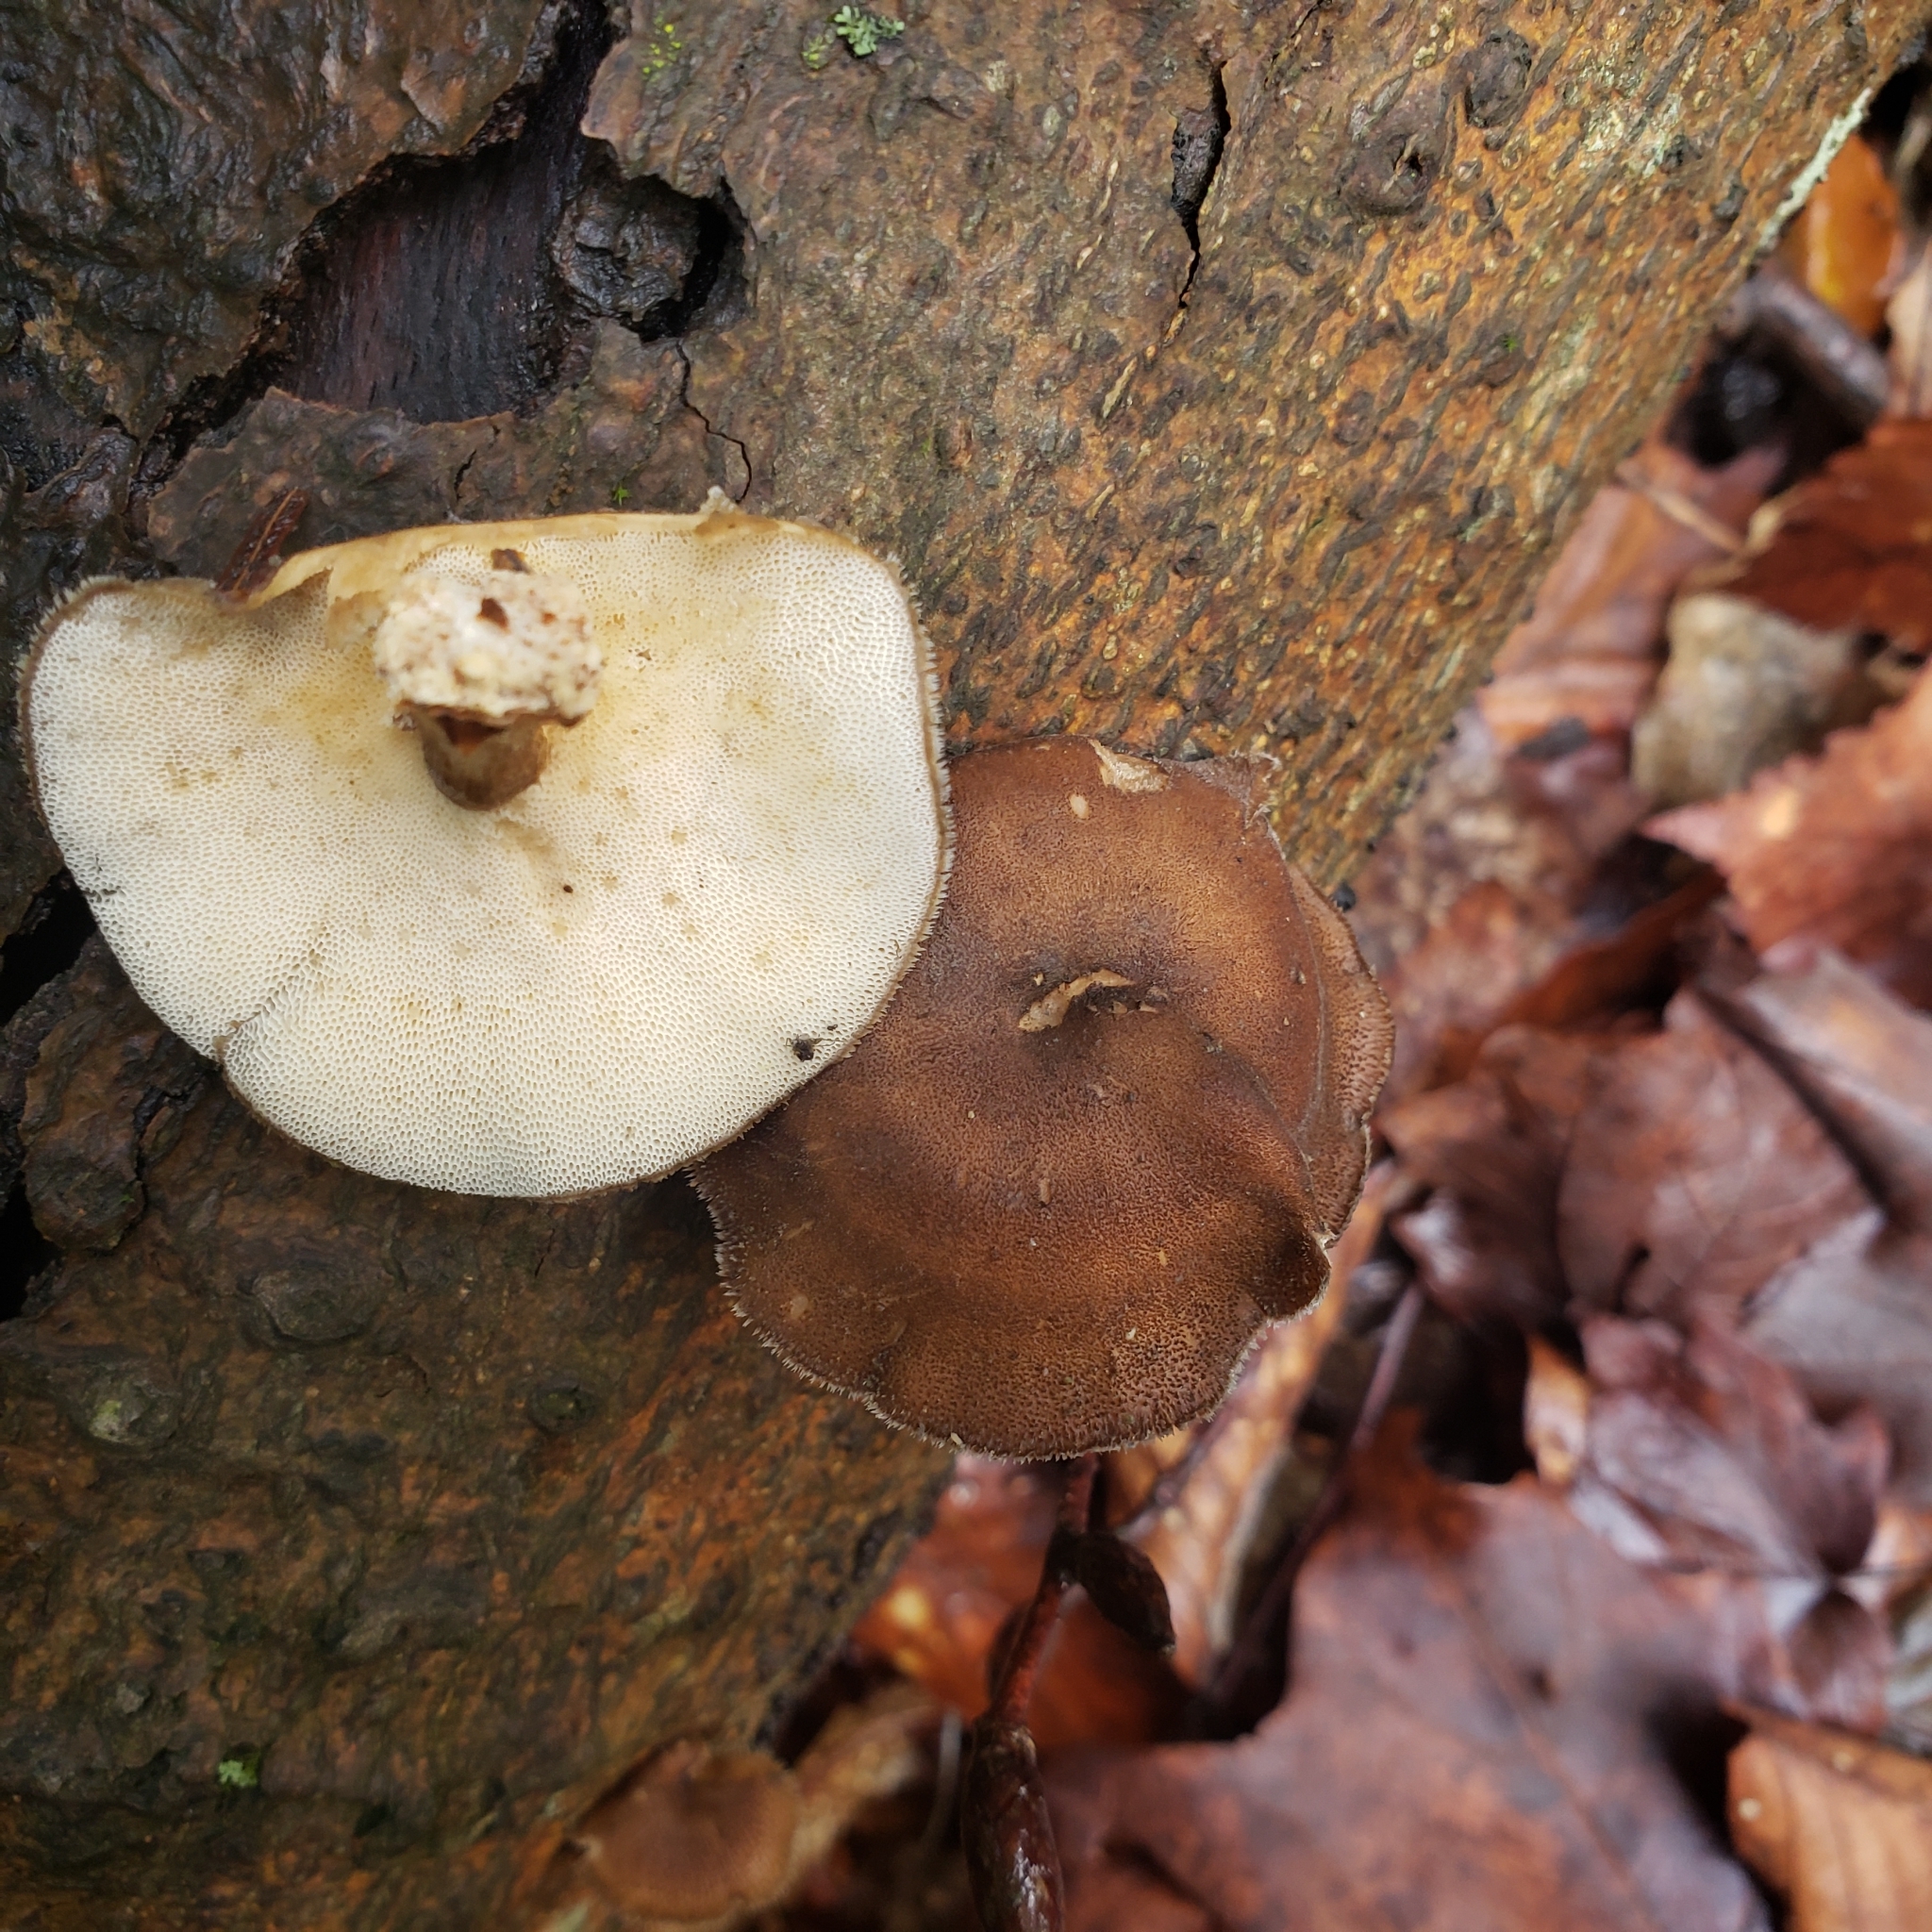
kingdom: Fungi
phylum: Basidiomycota
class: Agaricomycetes
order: Polyporales
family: Polyporaceae
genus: Lentinus
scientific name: Lentinus brumalis
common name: Winter polypore
